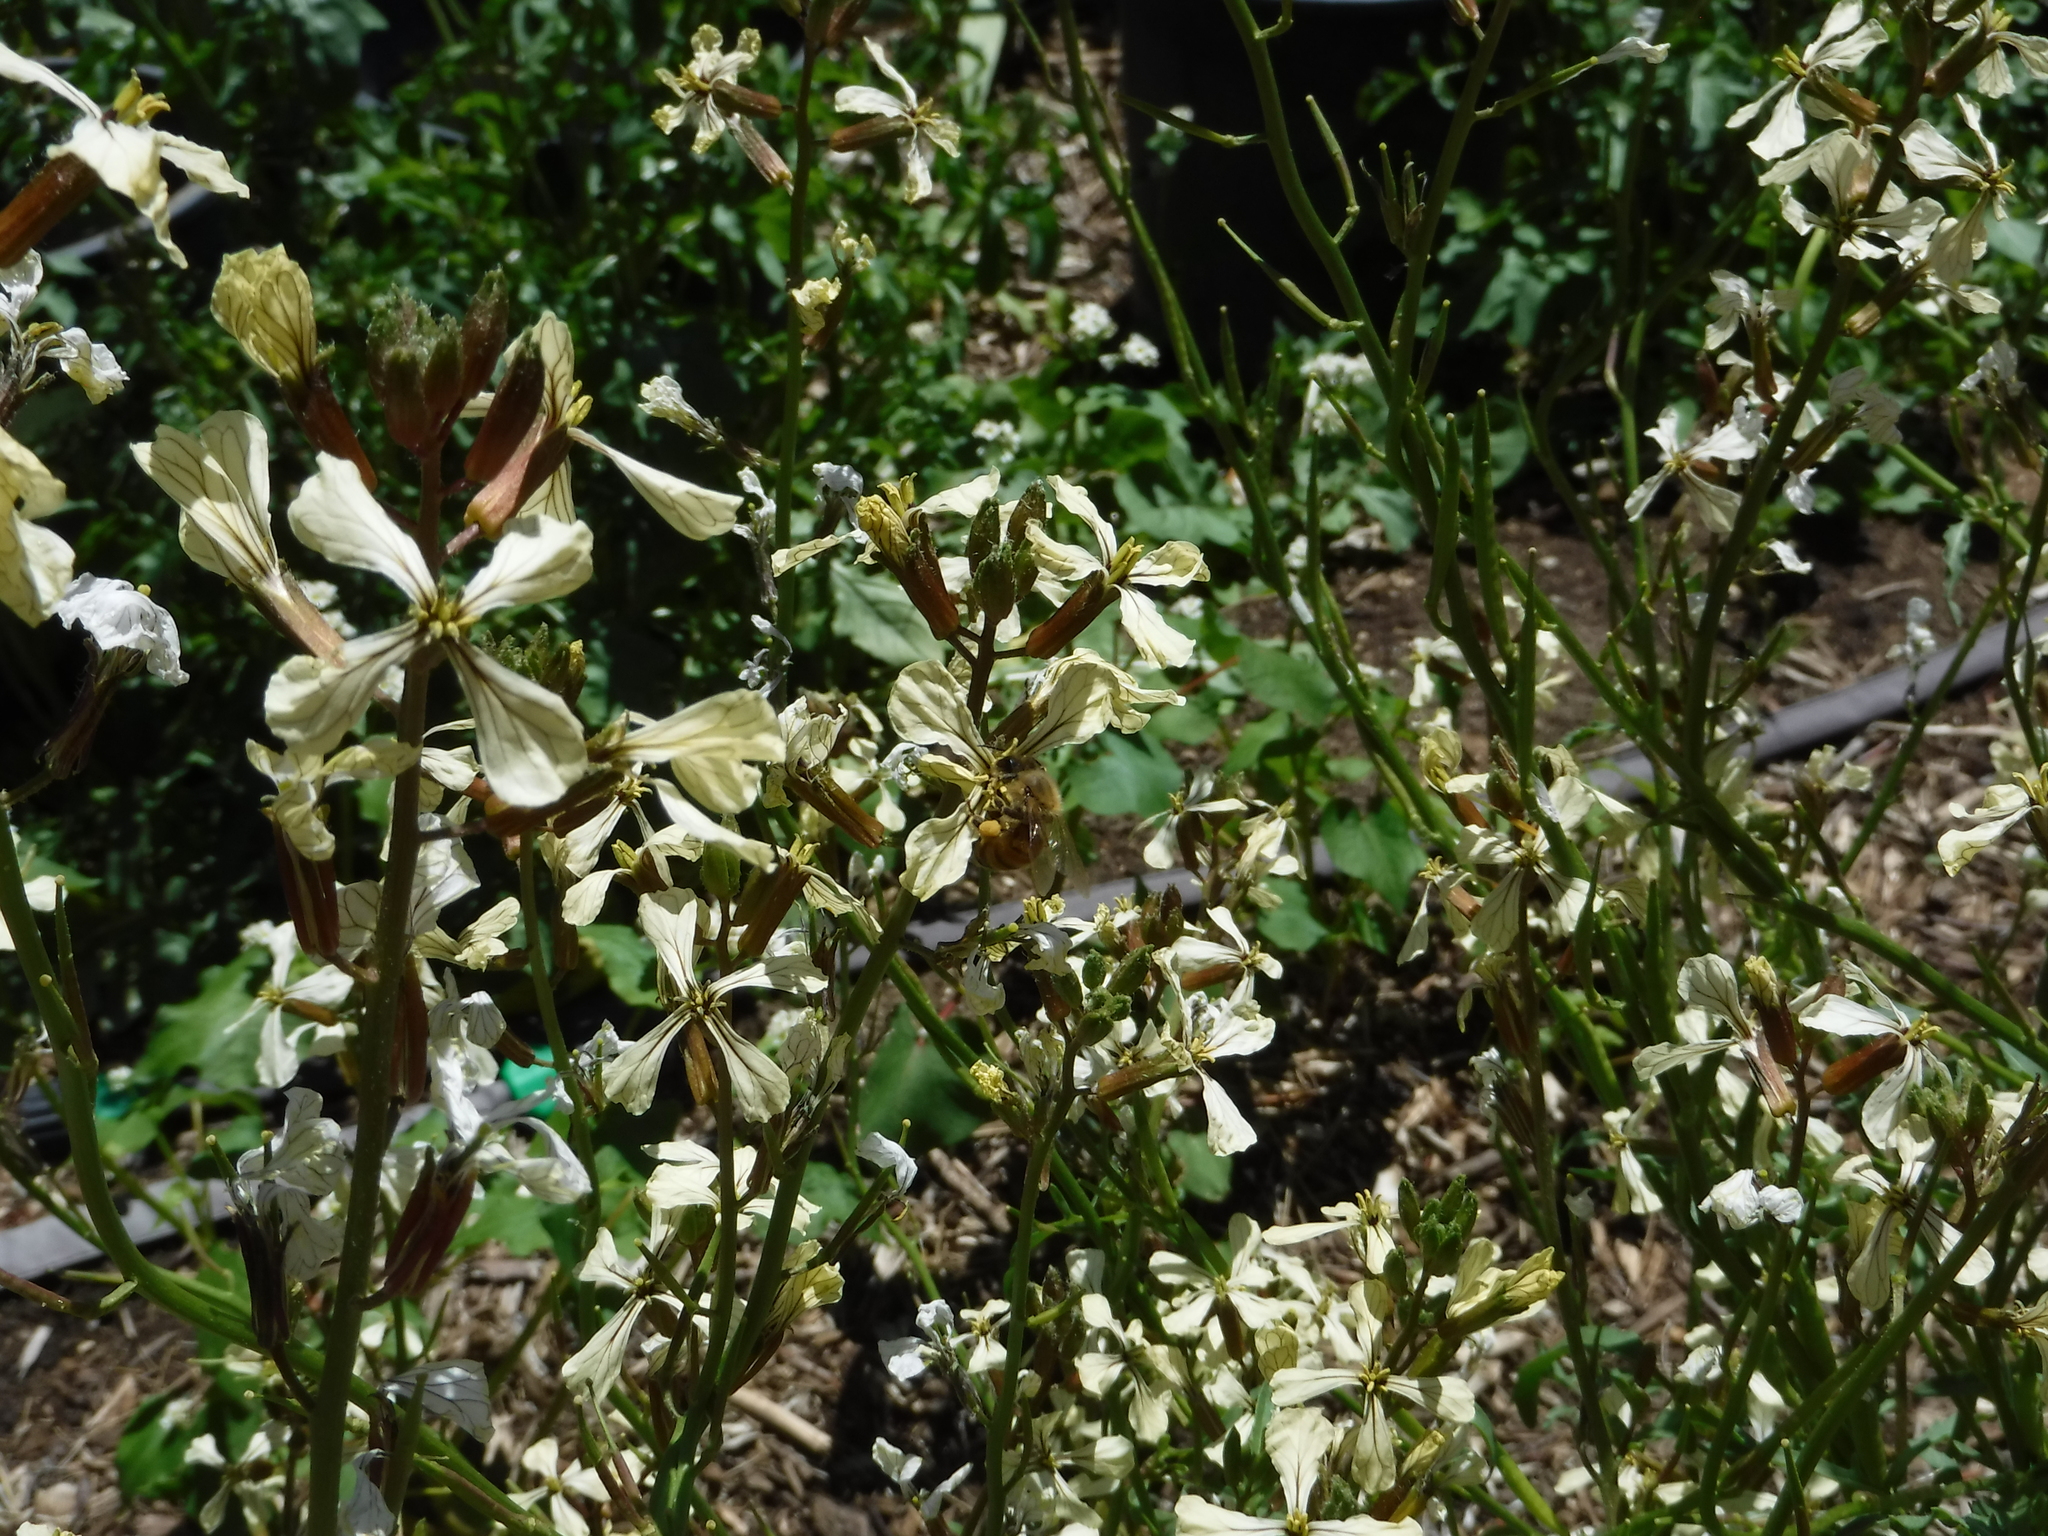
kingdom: Animalia
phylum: Arthropoda
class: Insecta
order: Hymenoptera
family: Apidae
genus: Apis
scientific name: Apis mellifera
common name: Honey bee
